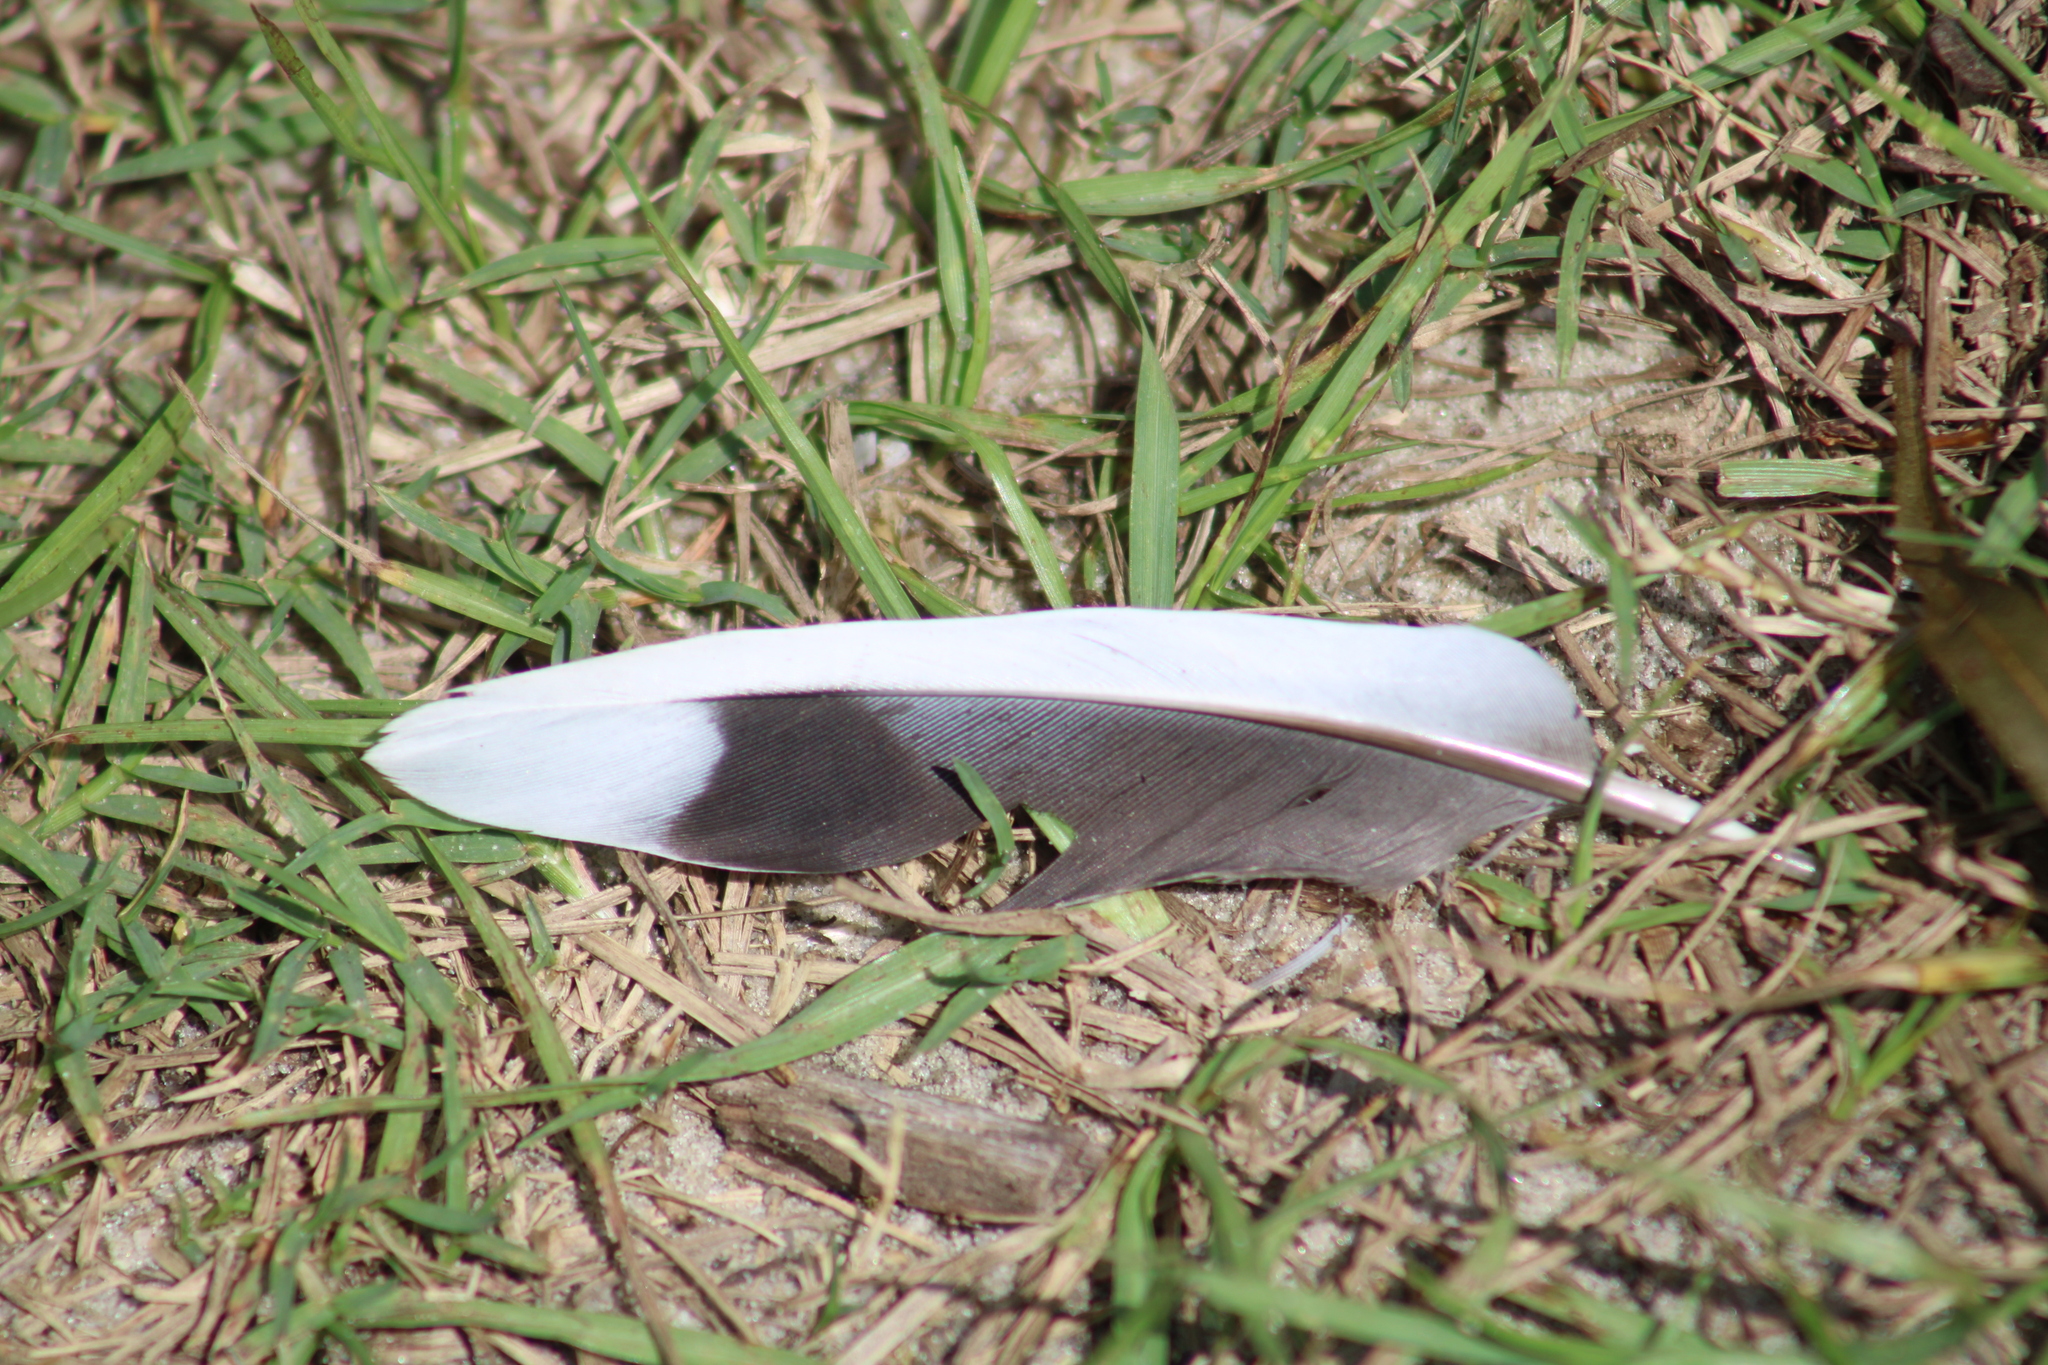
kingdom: Animalia
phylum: Chordata
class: Aves
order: Columbiformes
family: Columbidae
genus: Zenaida
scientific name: Zenaida macroura
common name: Mourning dove
